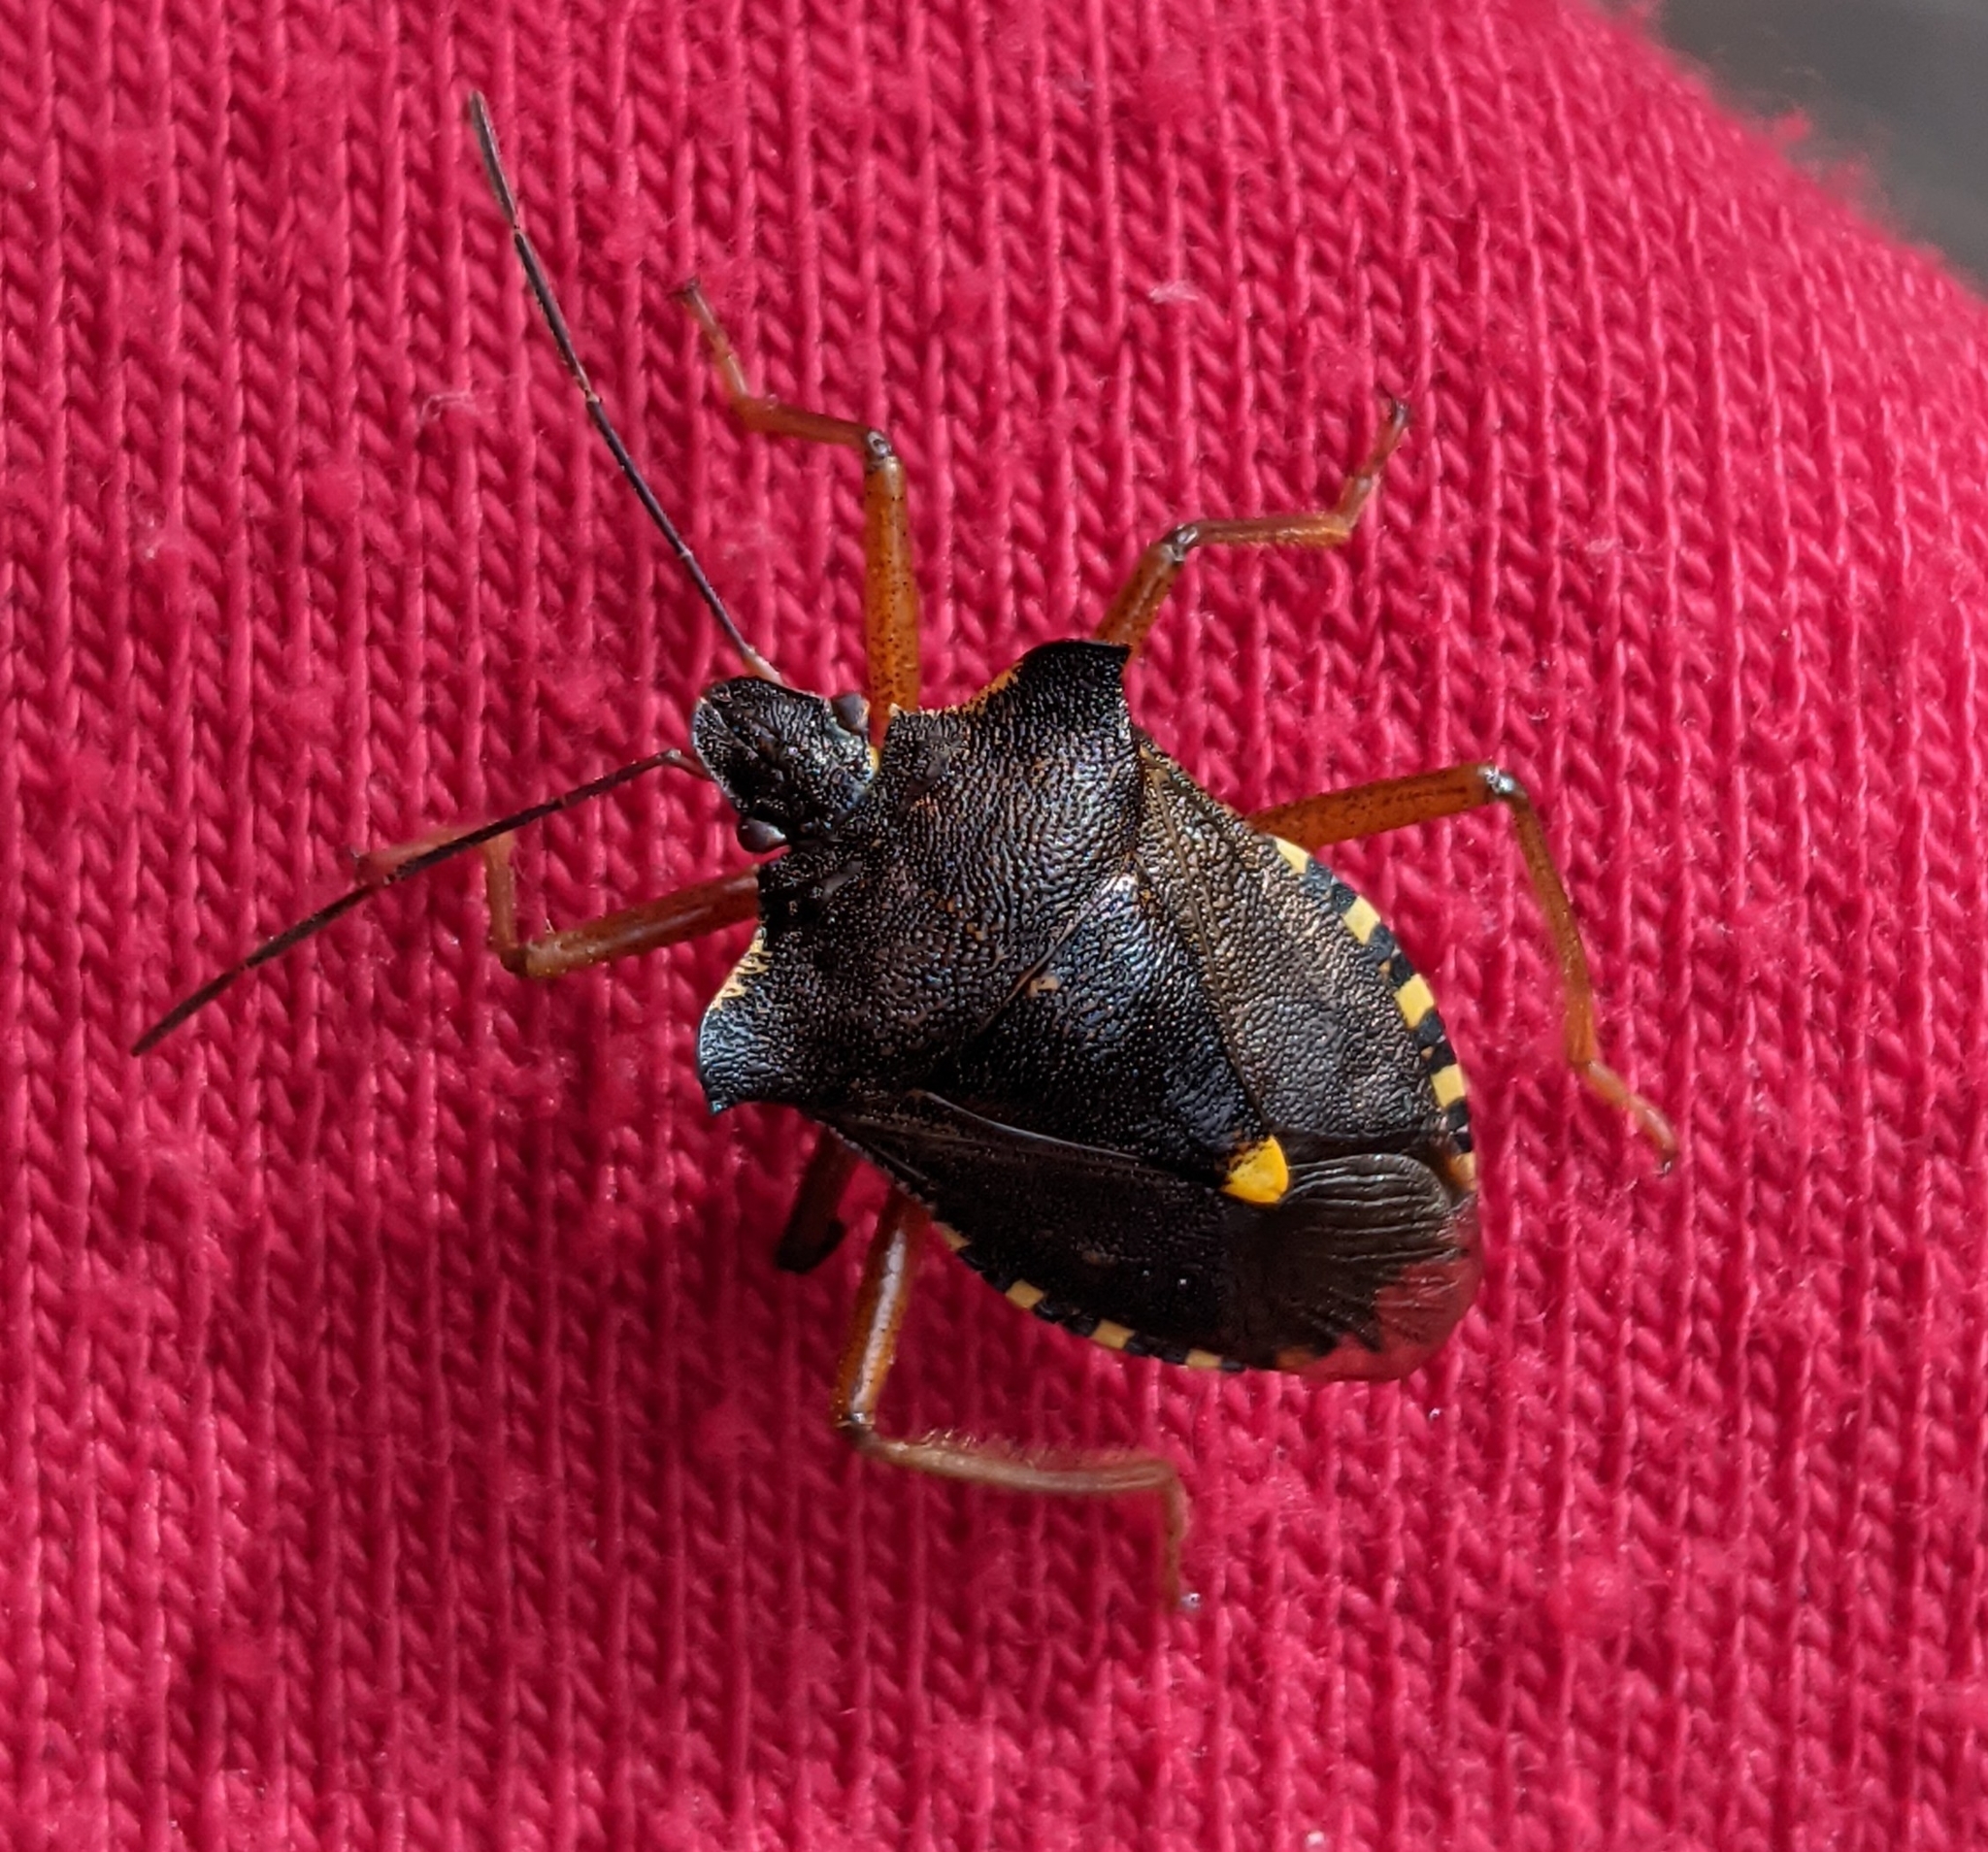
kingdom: Animalia
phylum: Arthropoda
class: Insecta
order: Hemiptera
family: Pentatomidae
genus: Pentatoma
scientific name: Pentatoma rufipes
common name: Forest bug
